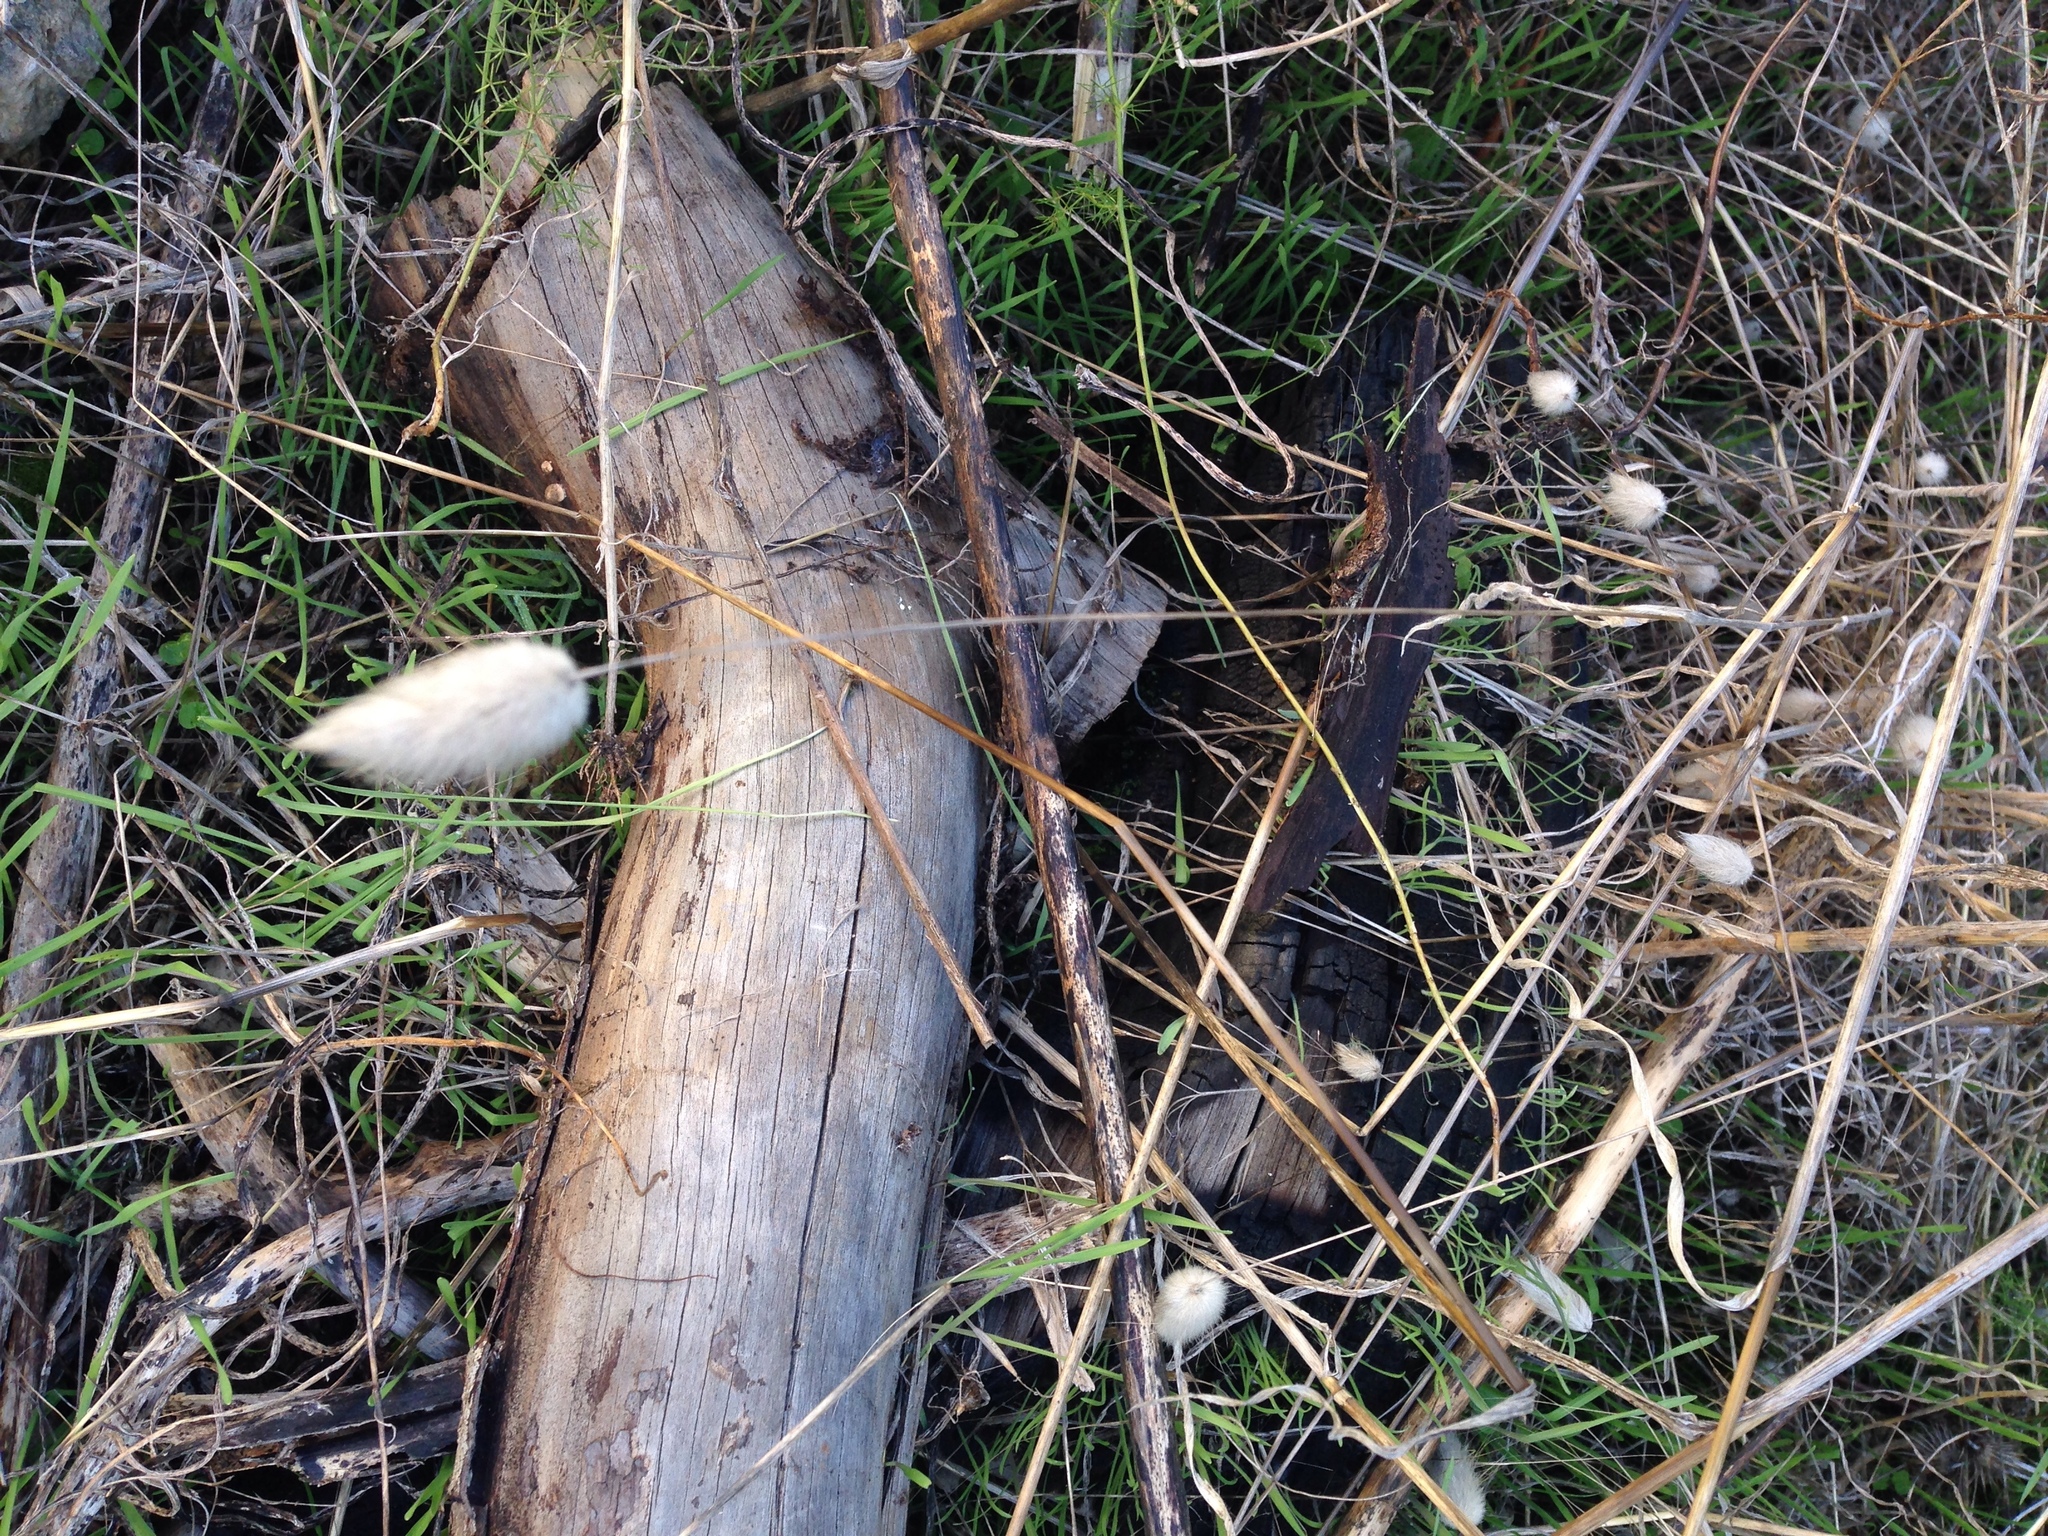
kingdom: Plantae
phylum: Tracheophyta
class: Liliopsida
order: Poales
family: Poaceae
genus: Lagurus
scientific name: Lagurus ovatus
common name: Hare's-tail
